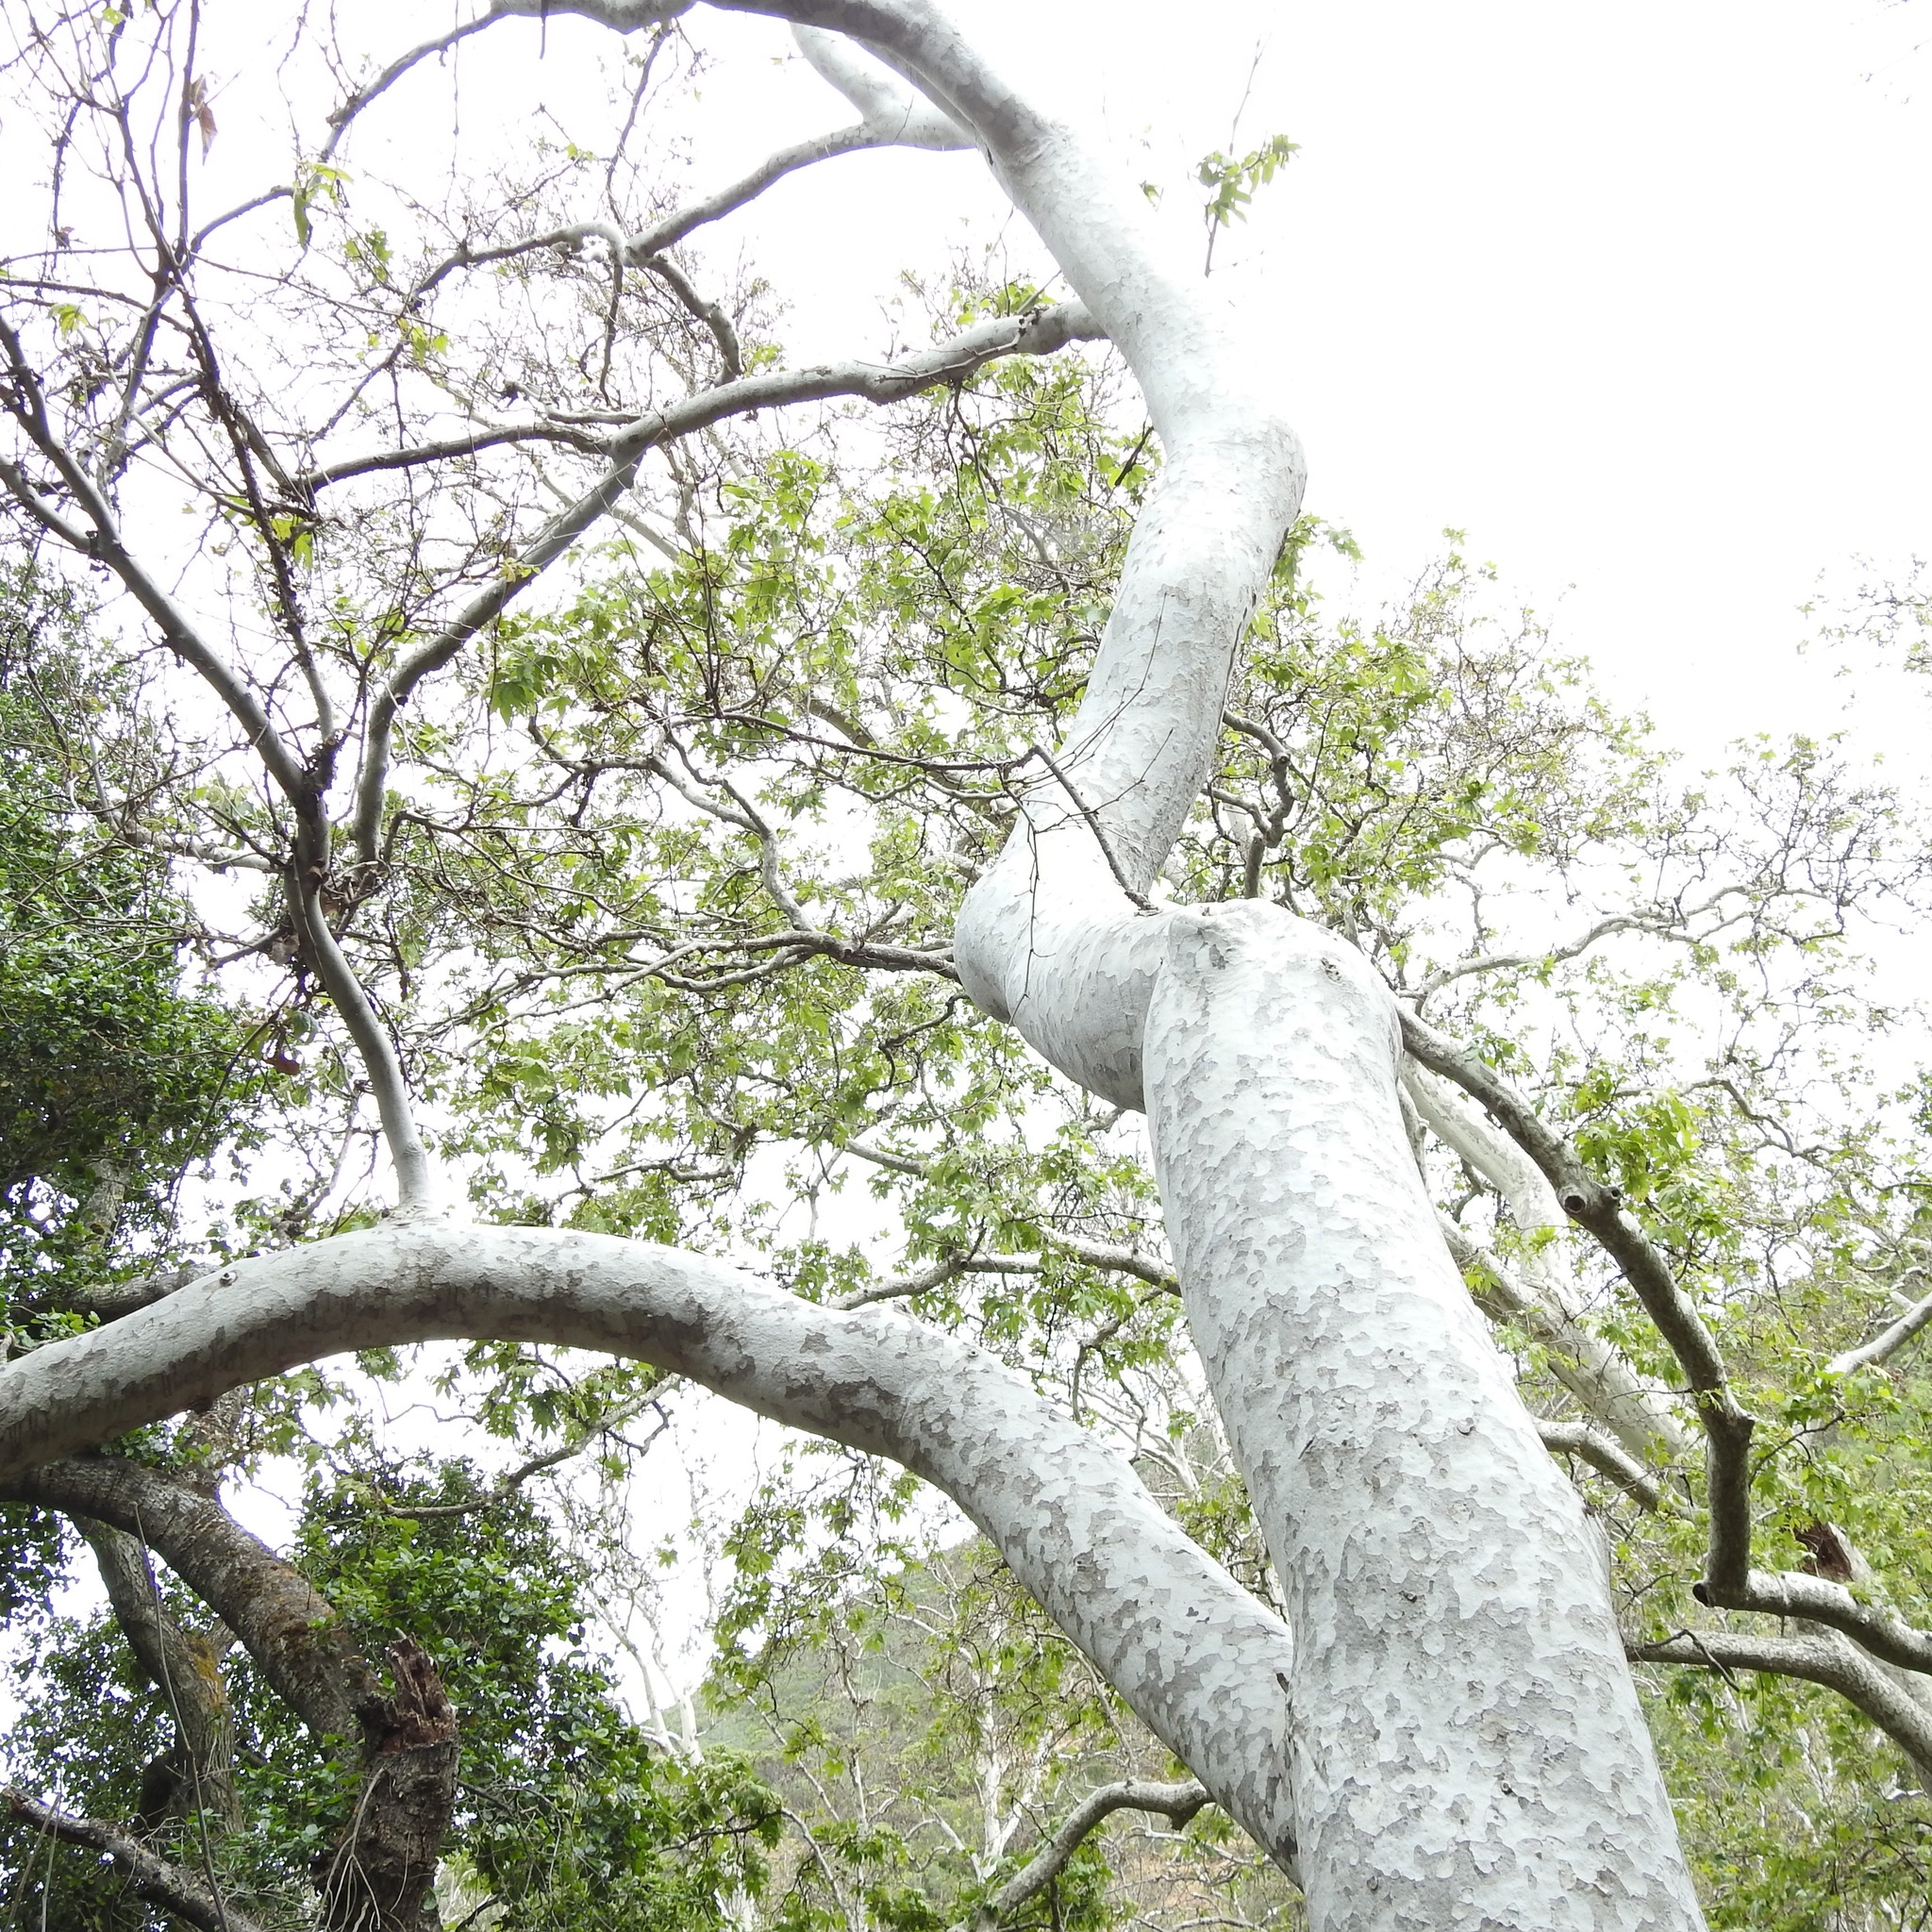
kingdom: Plantae
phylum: Tracheophyta
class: Magnoliopsida
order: Proteales
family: Platanaceae
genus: Platanus
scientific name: Platanus racemosa
